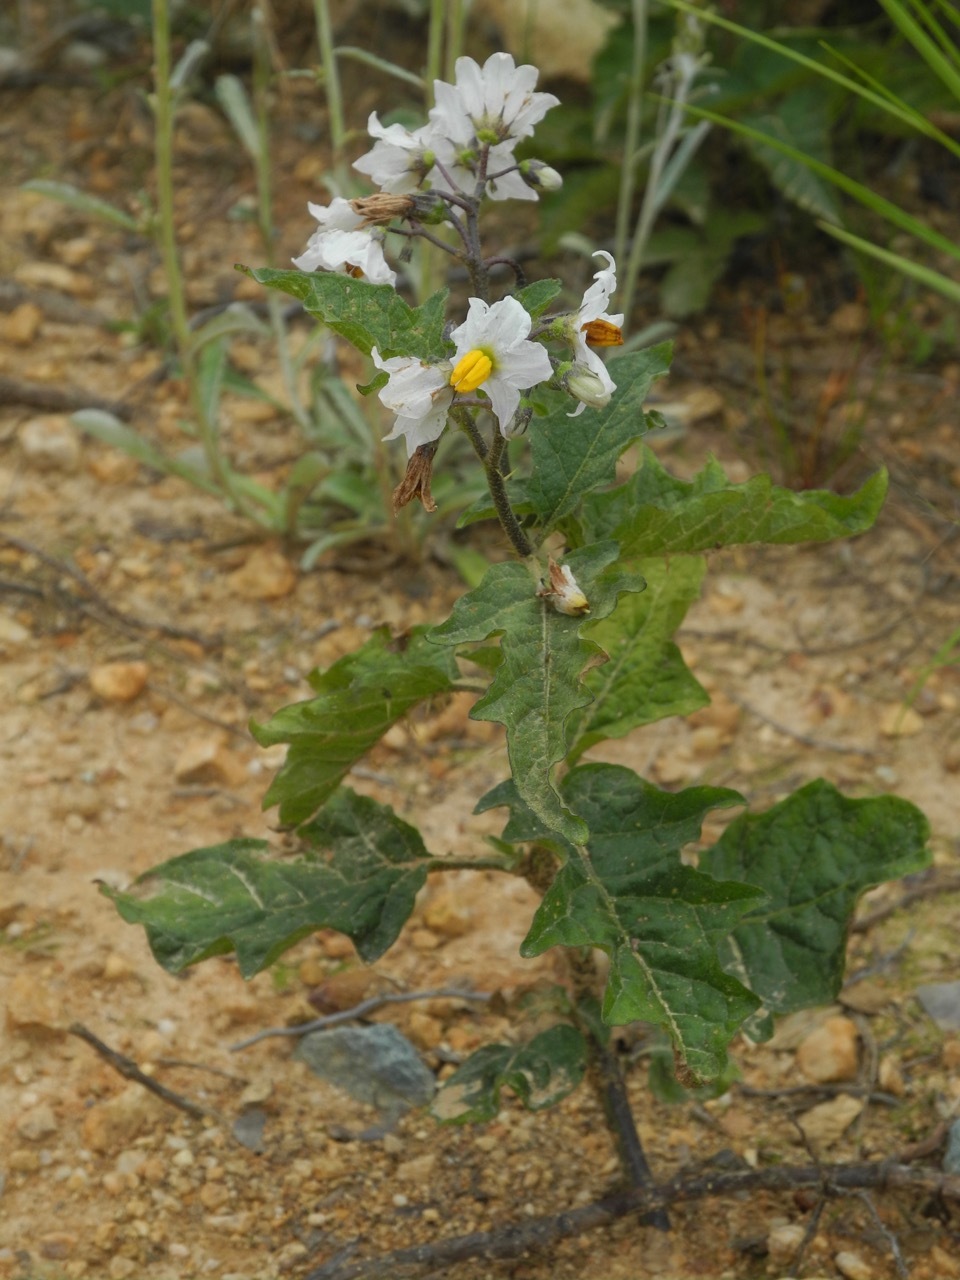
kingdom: Plantae
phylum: Tracheophyta
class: Magnoliopsida
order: Solanales
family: Solanaceae
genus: Solanum
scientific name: Solanum carolinense
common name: Horse-nettle
